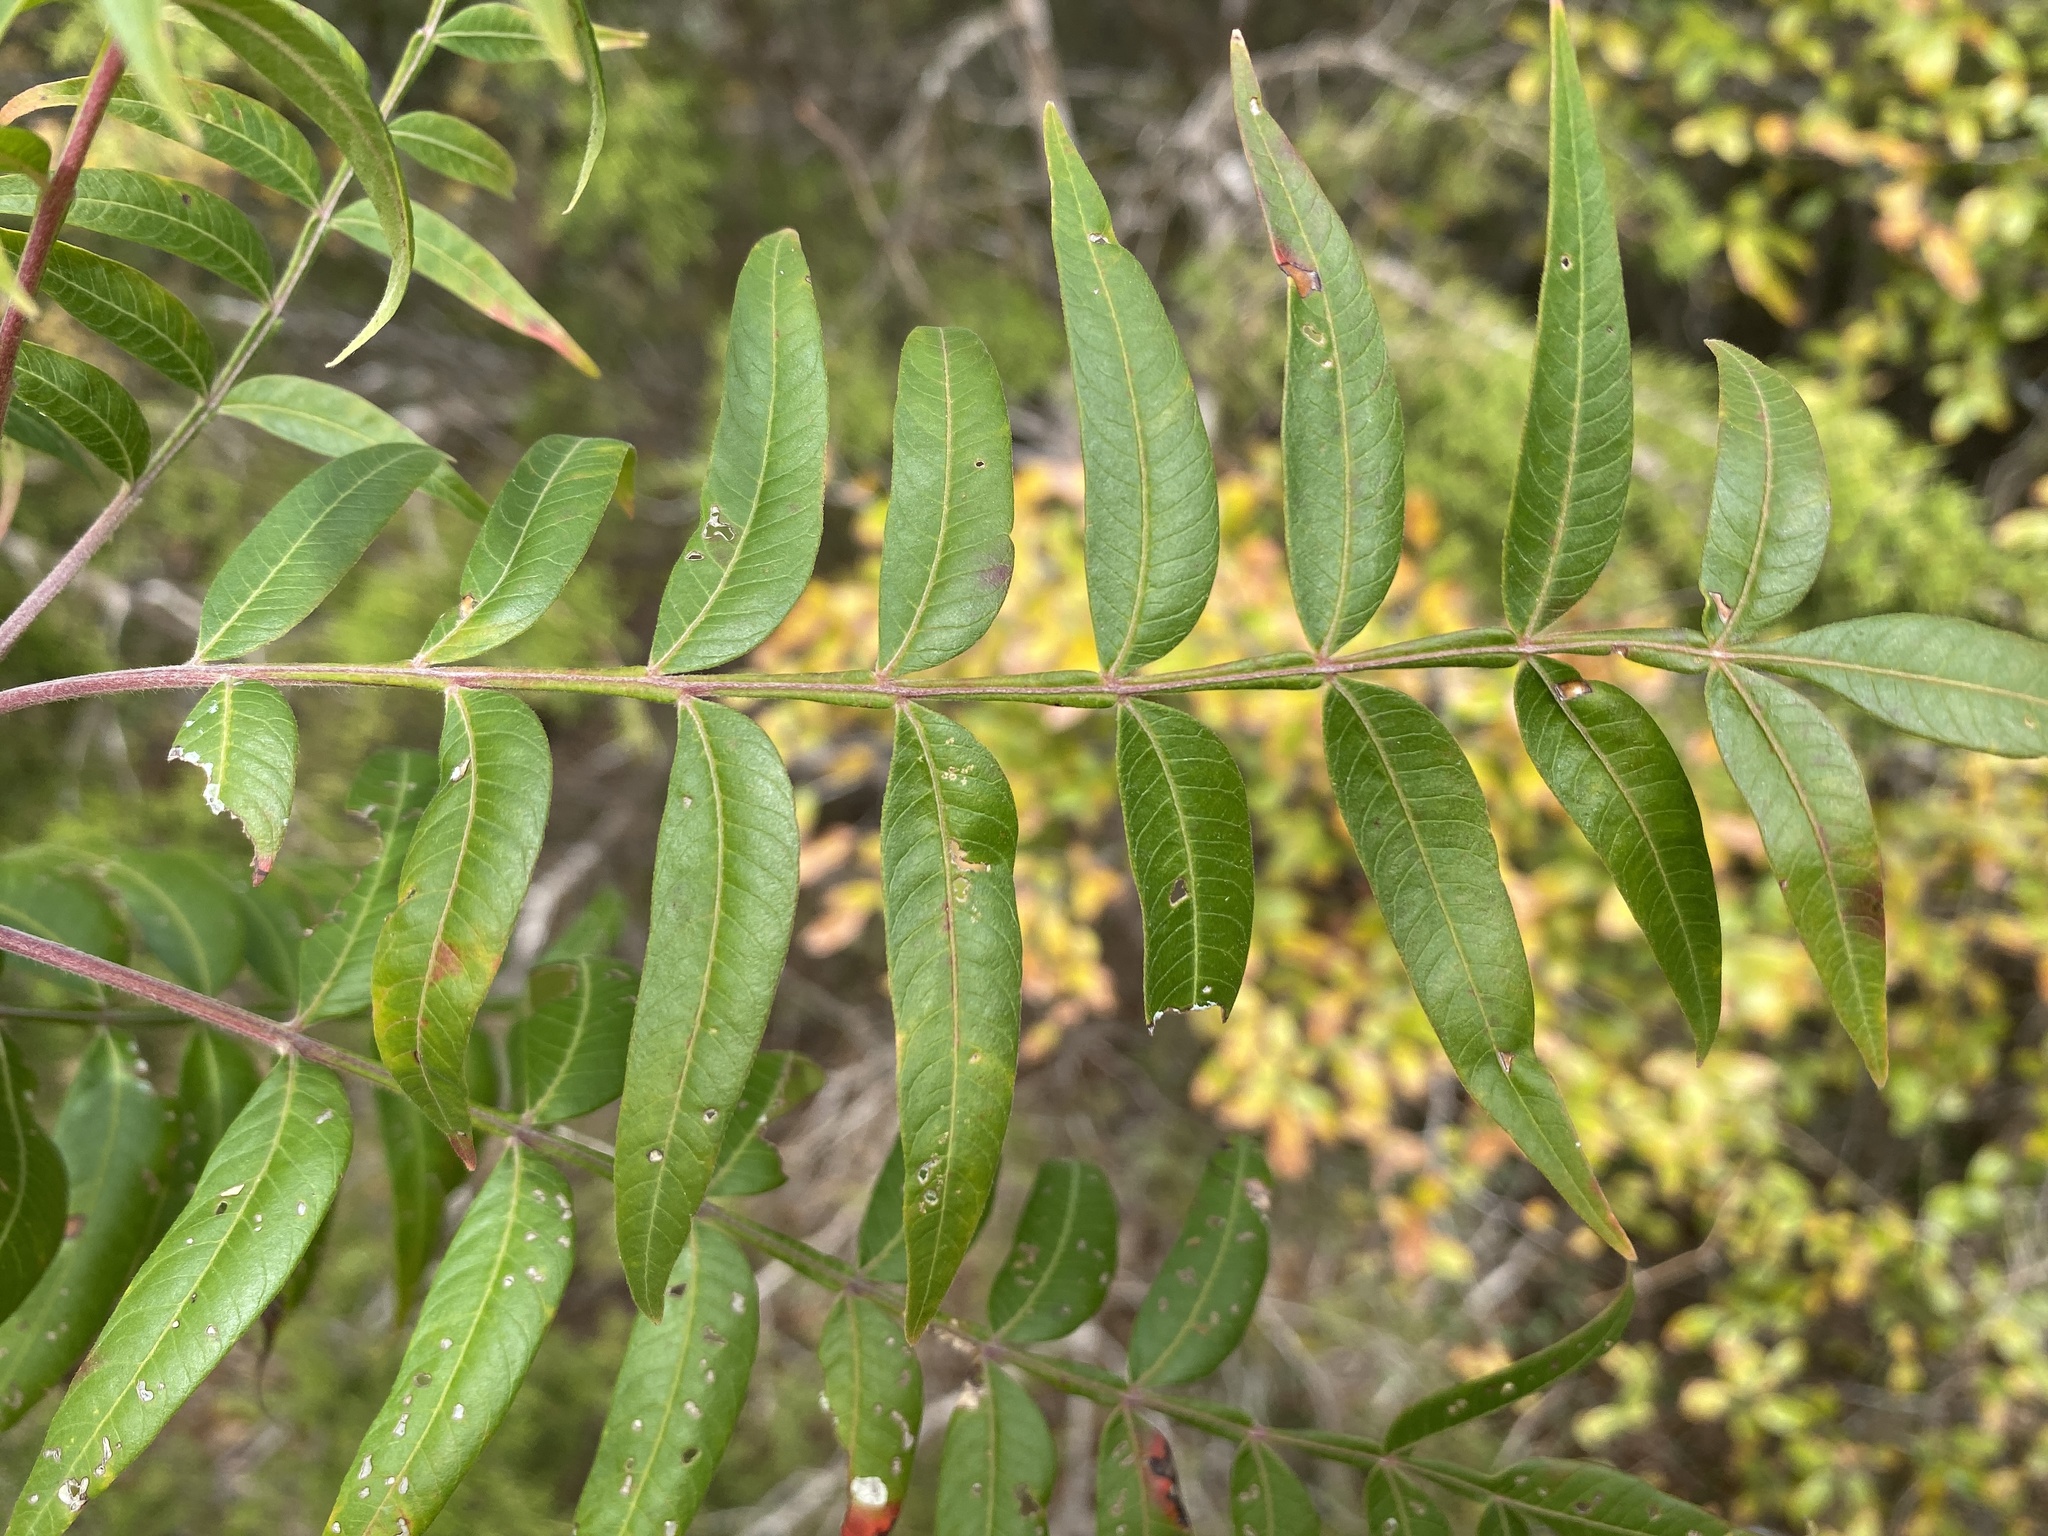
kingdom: Plantae
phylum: Tracheophyta
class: Magnoliopsida
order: Sapindales
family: Anacardiaceae
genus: Rhus
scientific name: Rhus lanceolata
